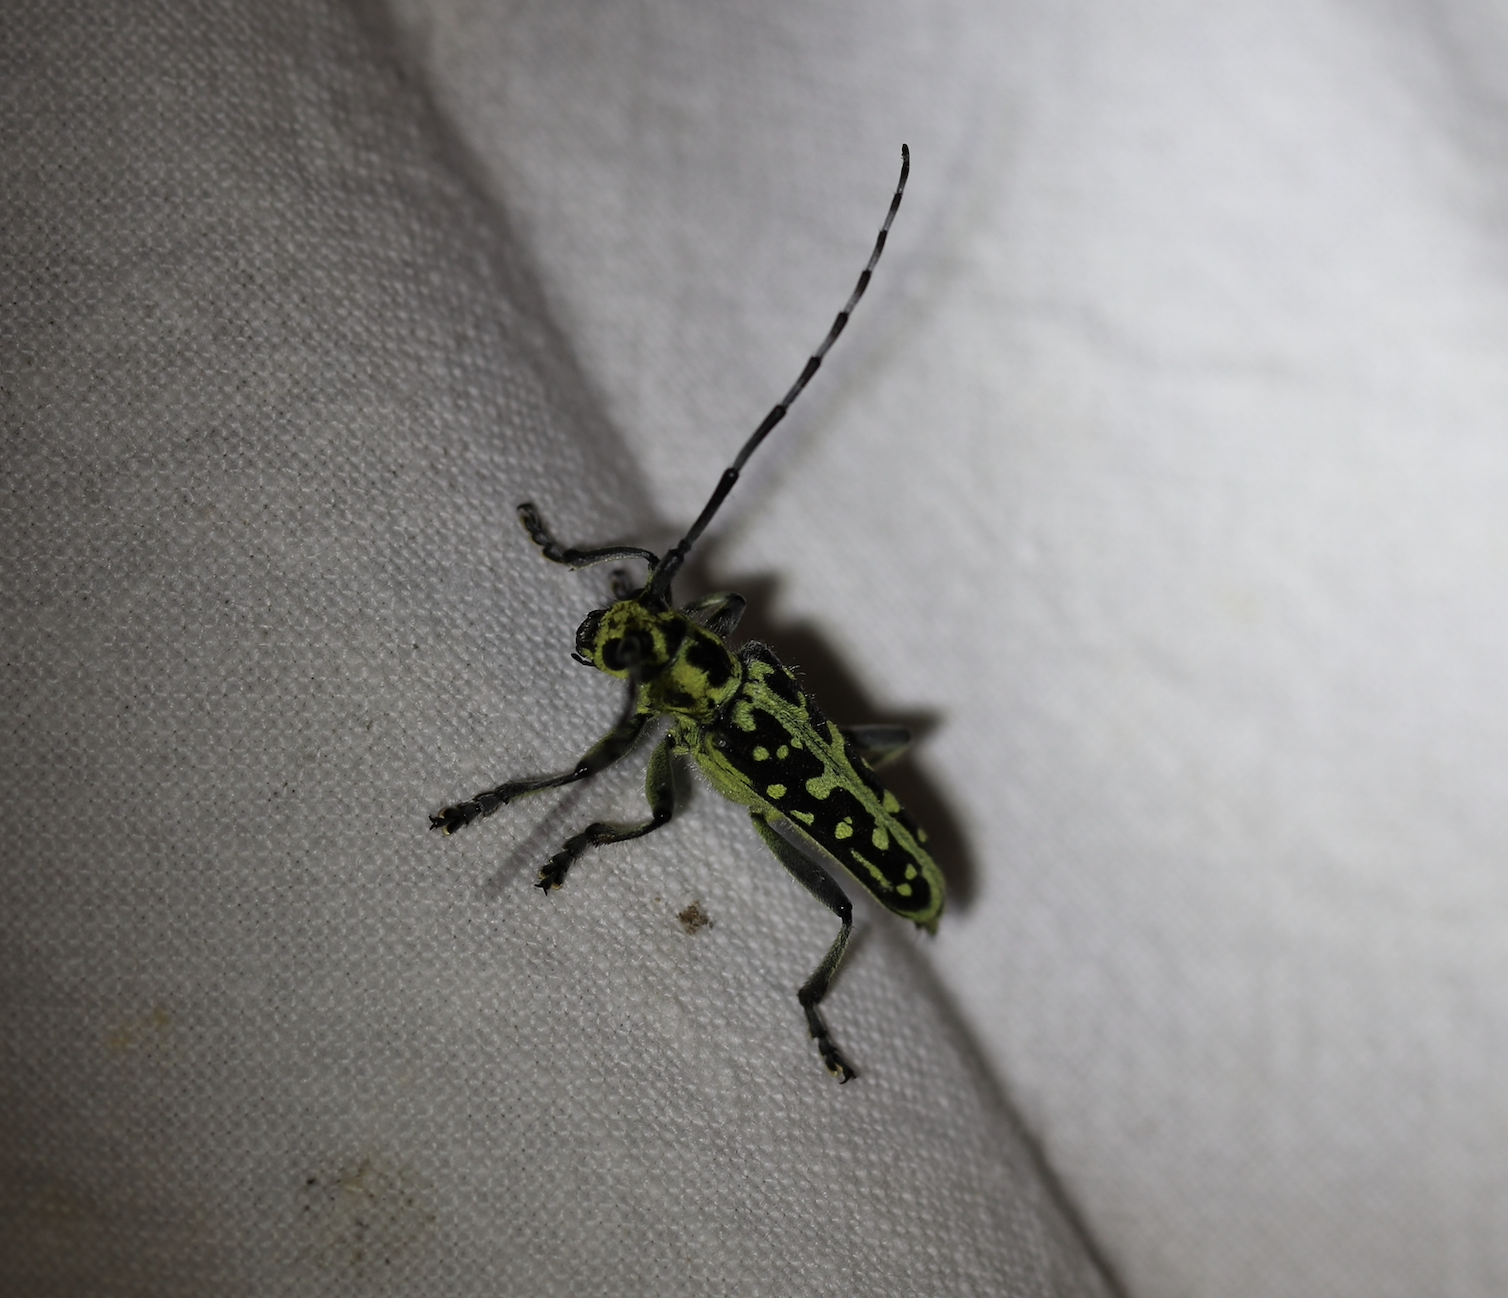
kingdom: Animalia
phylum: Arthropoda
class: Insecta
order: Coleoptera
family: Cerambycidae
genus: Saperda
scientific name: Saperda scalaris
